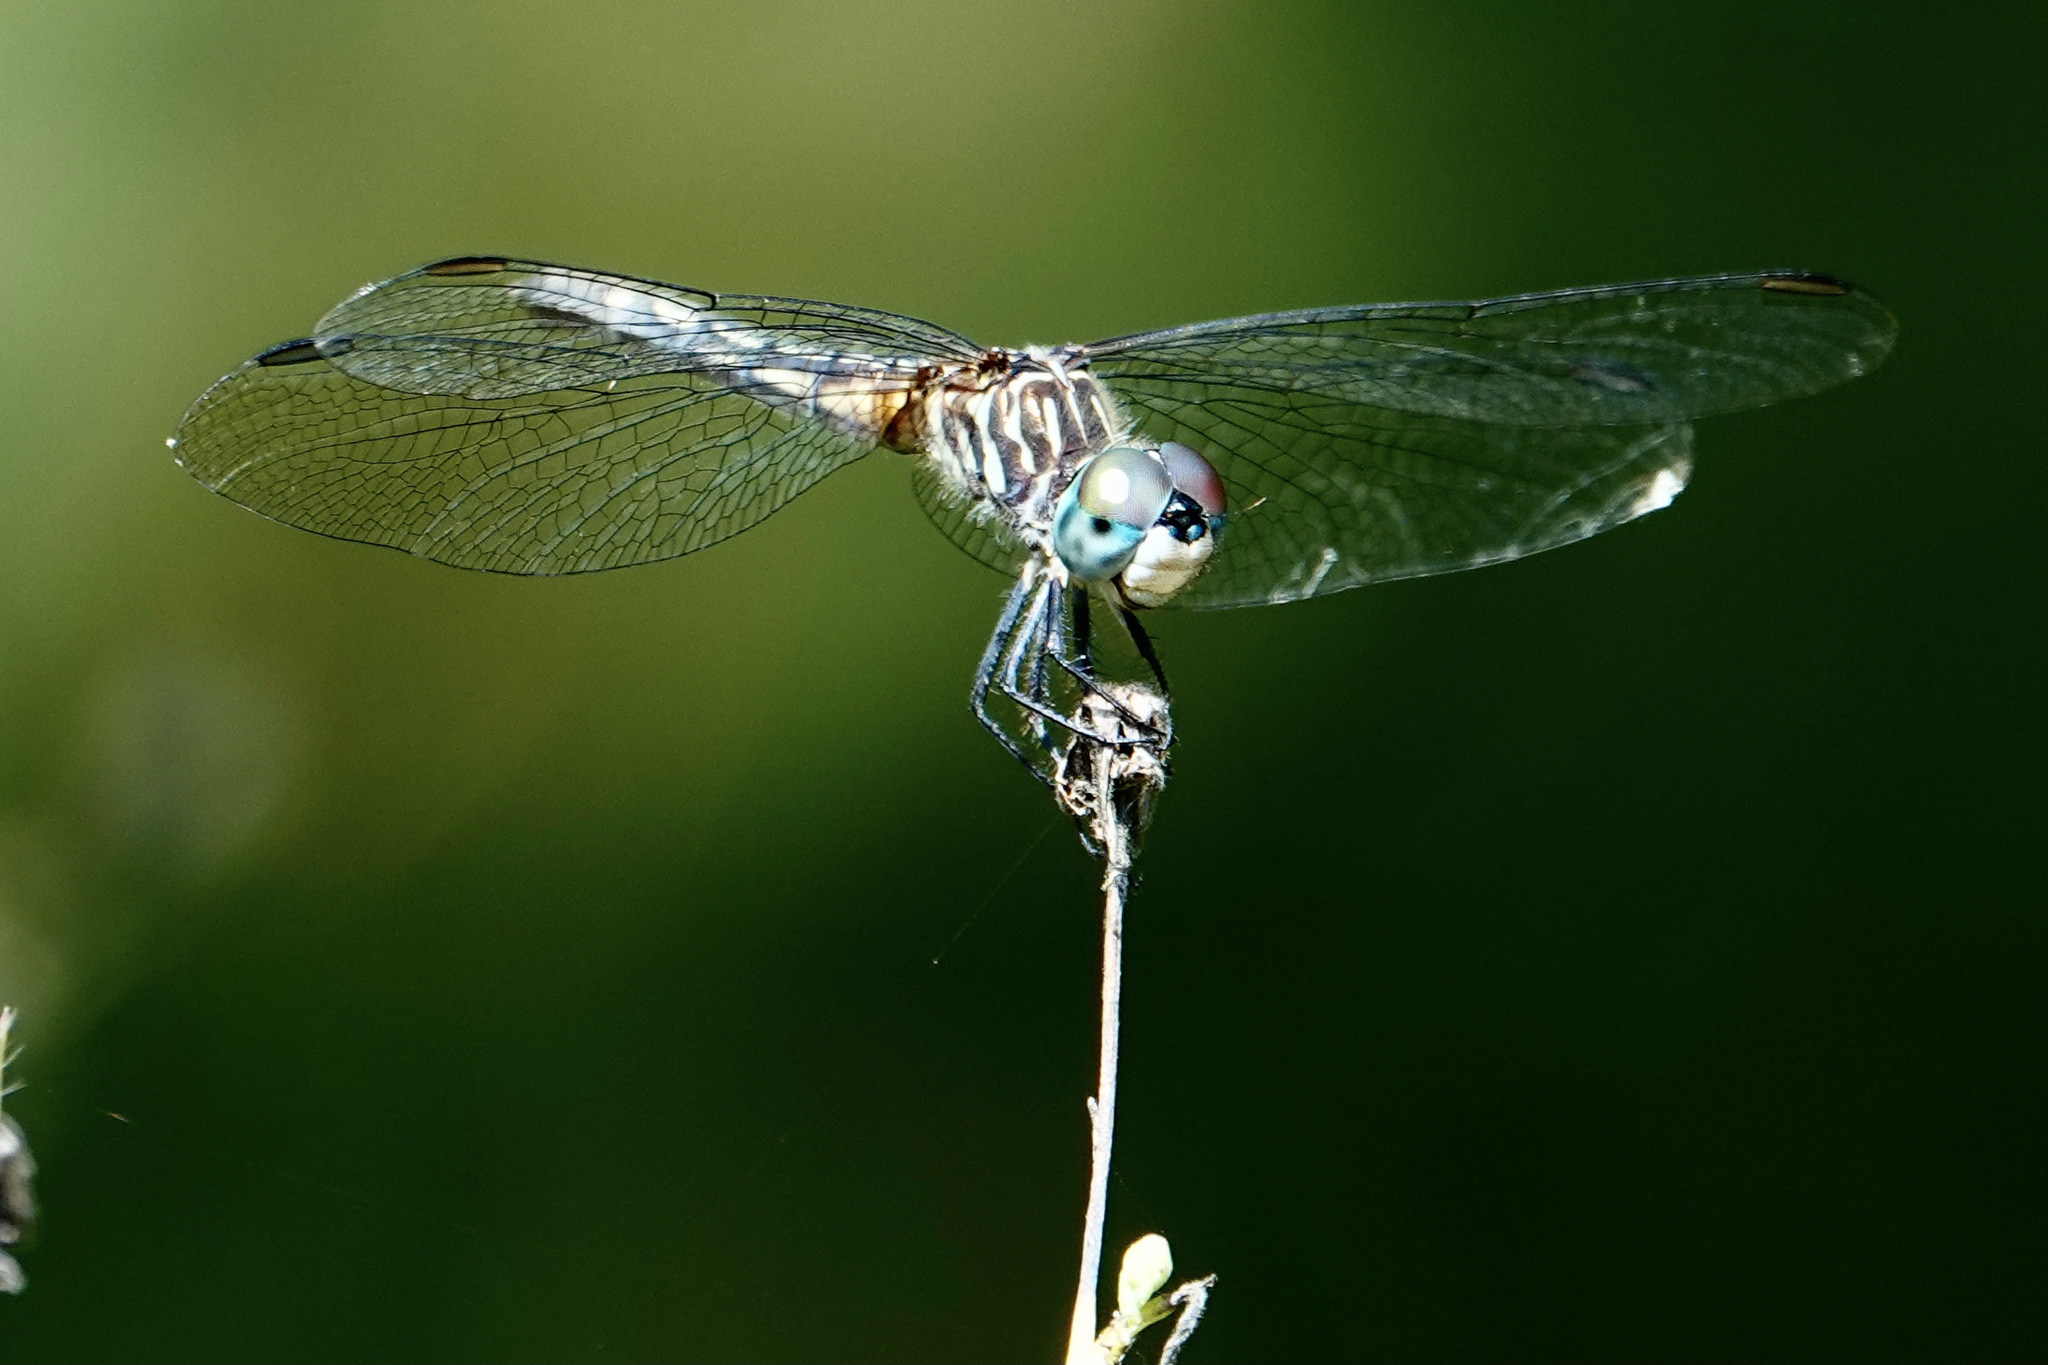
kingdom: Animalia
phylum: Arthropoda
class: Insecta
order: Odonata
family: Libellulidae
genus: Pachydiplax
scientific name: Pachydiplax longipennis
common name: Blue dasher
